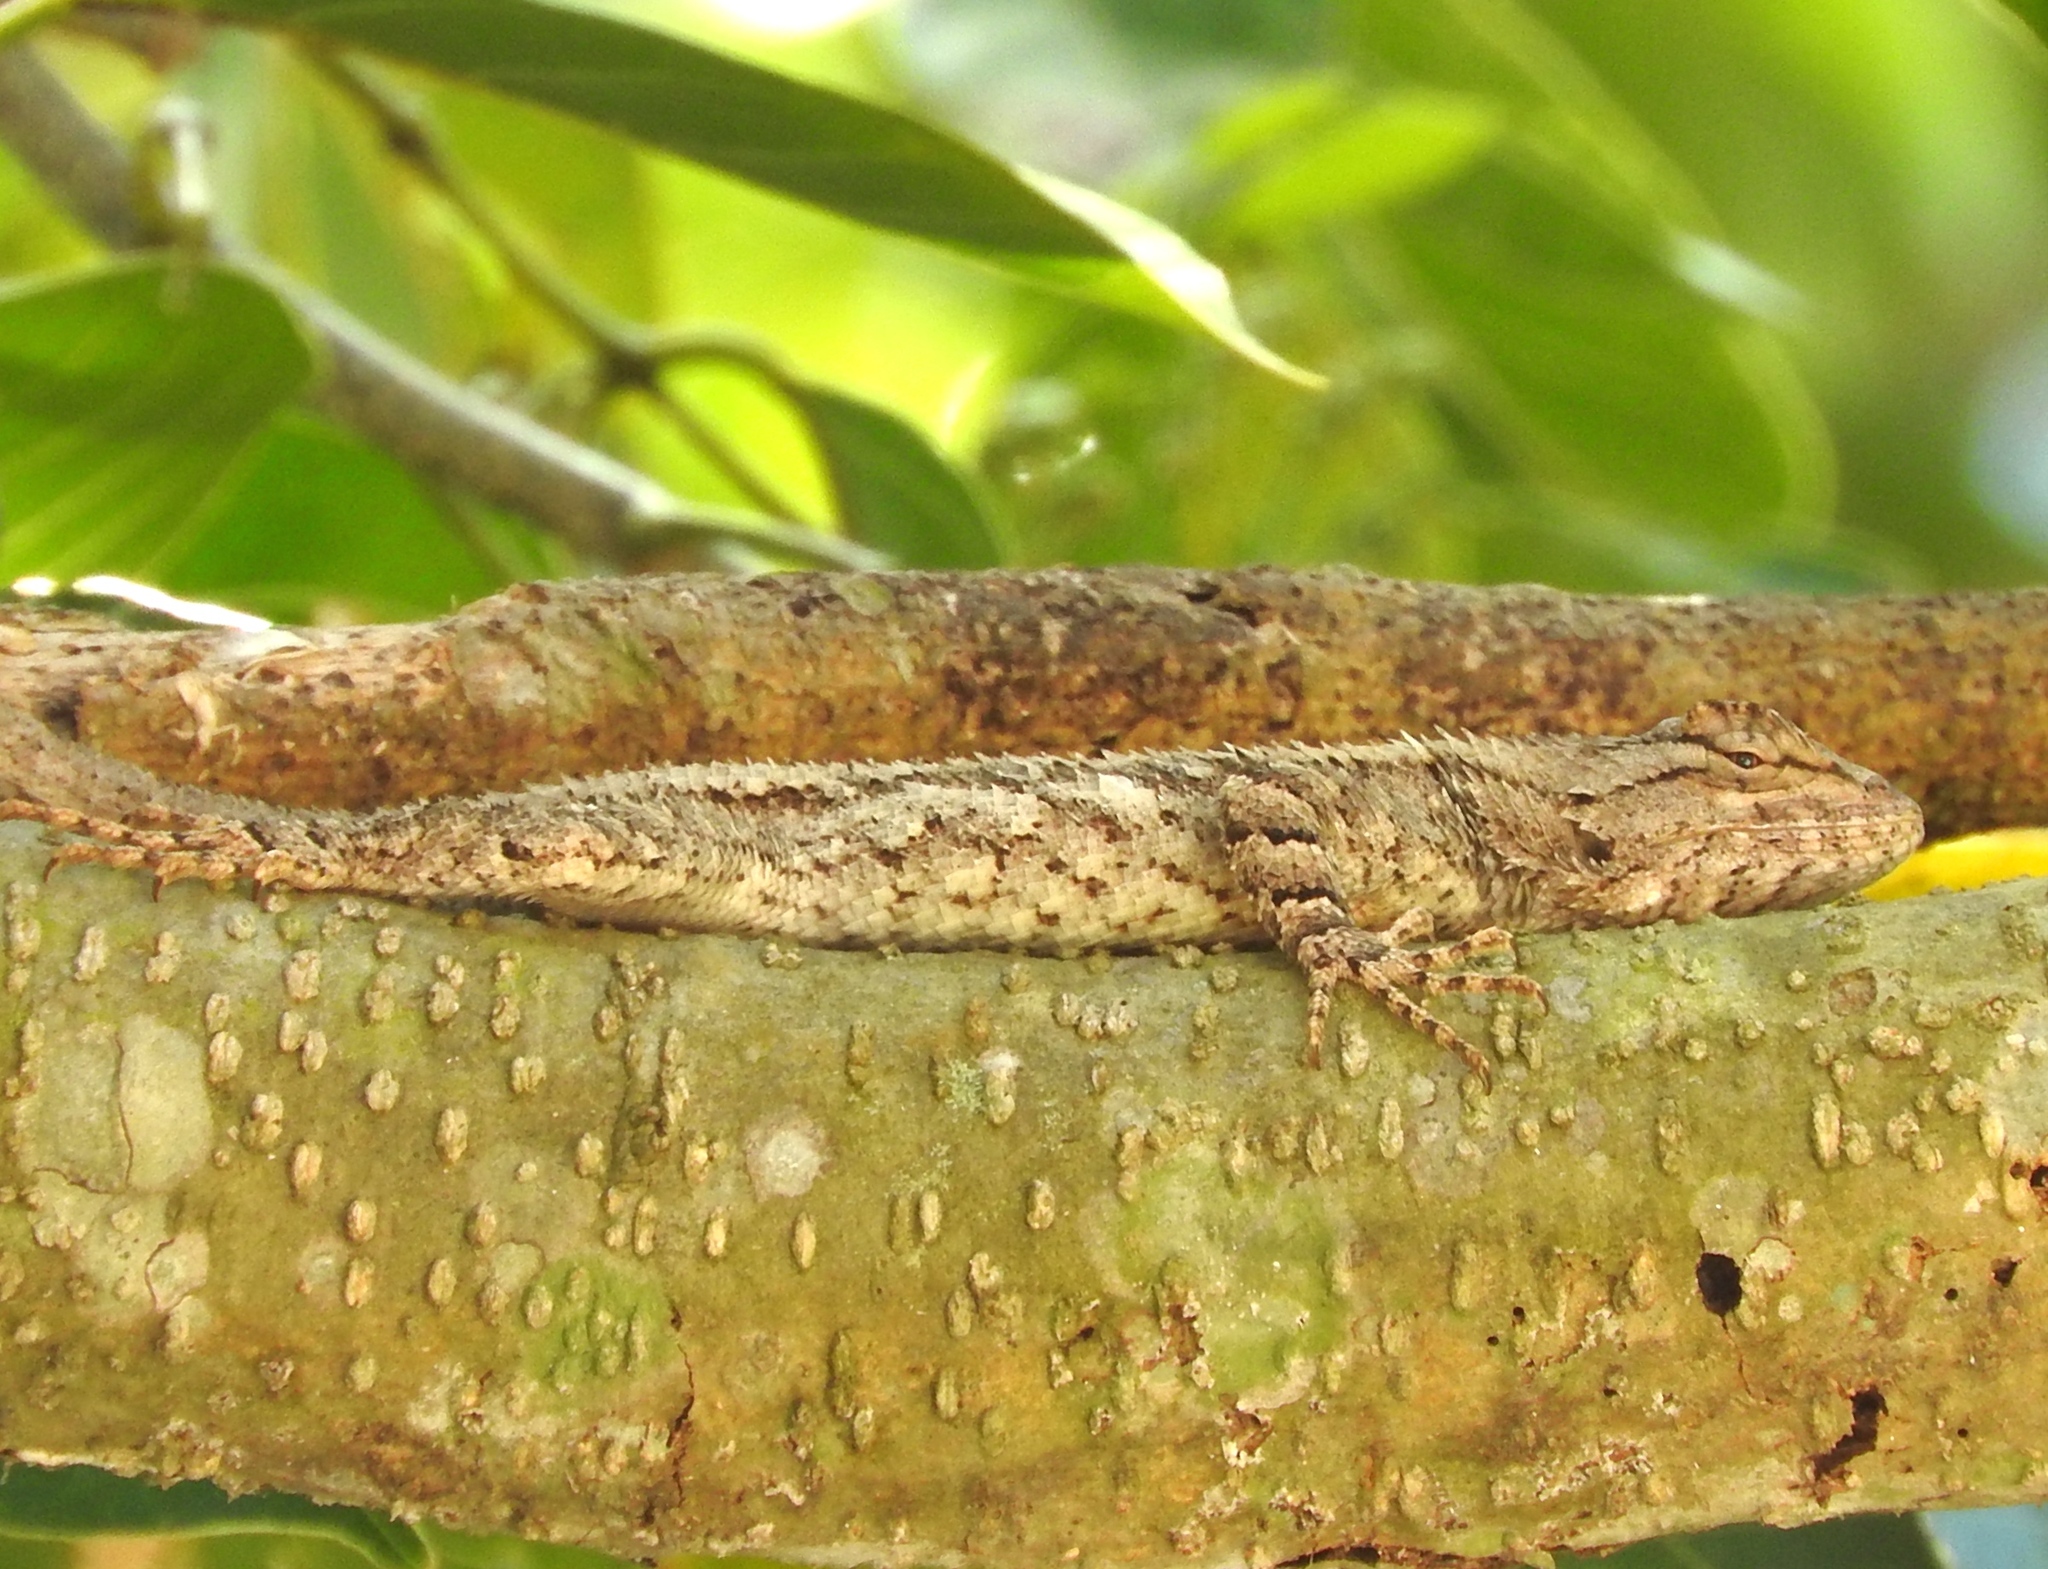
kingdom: Animalia
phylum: Chordata
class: Squamata
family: Phrynosomatidae
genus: Sceloporus
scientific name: Sceloporus clarkii
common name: Clark's spiny lizard
